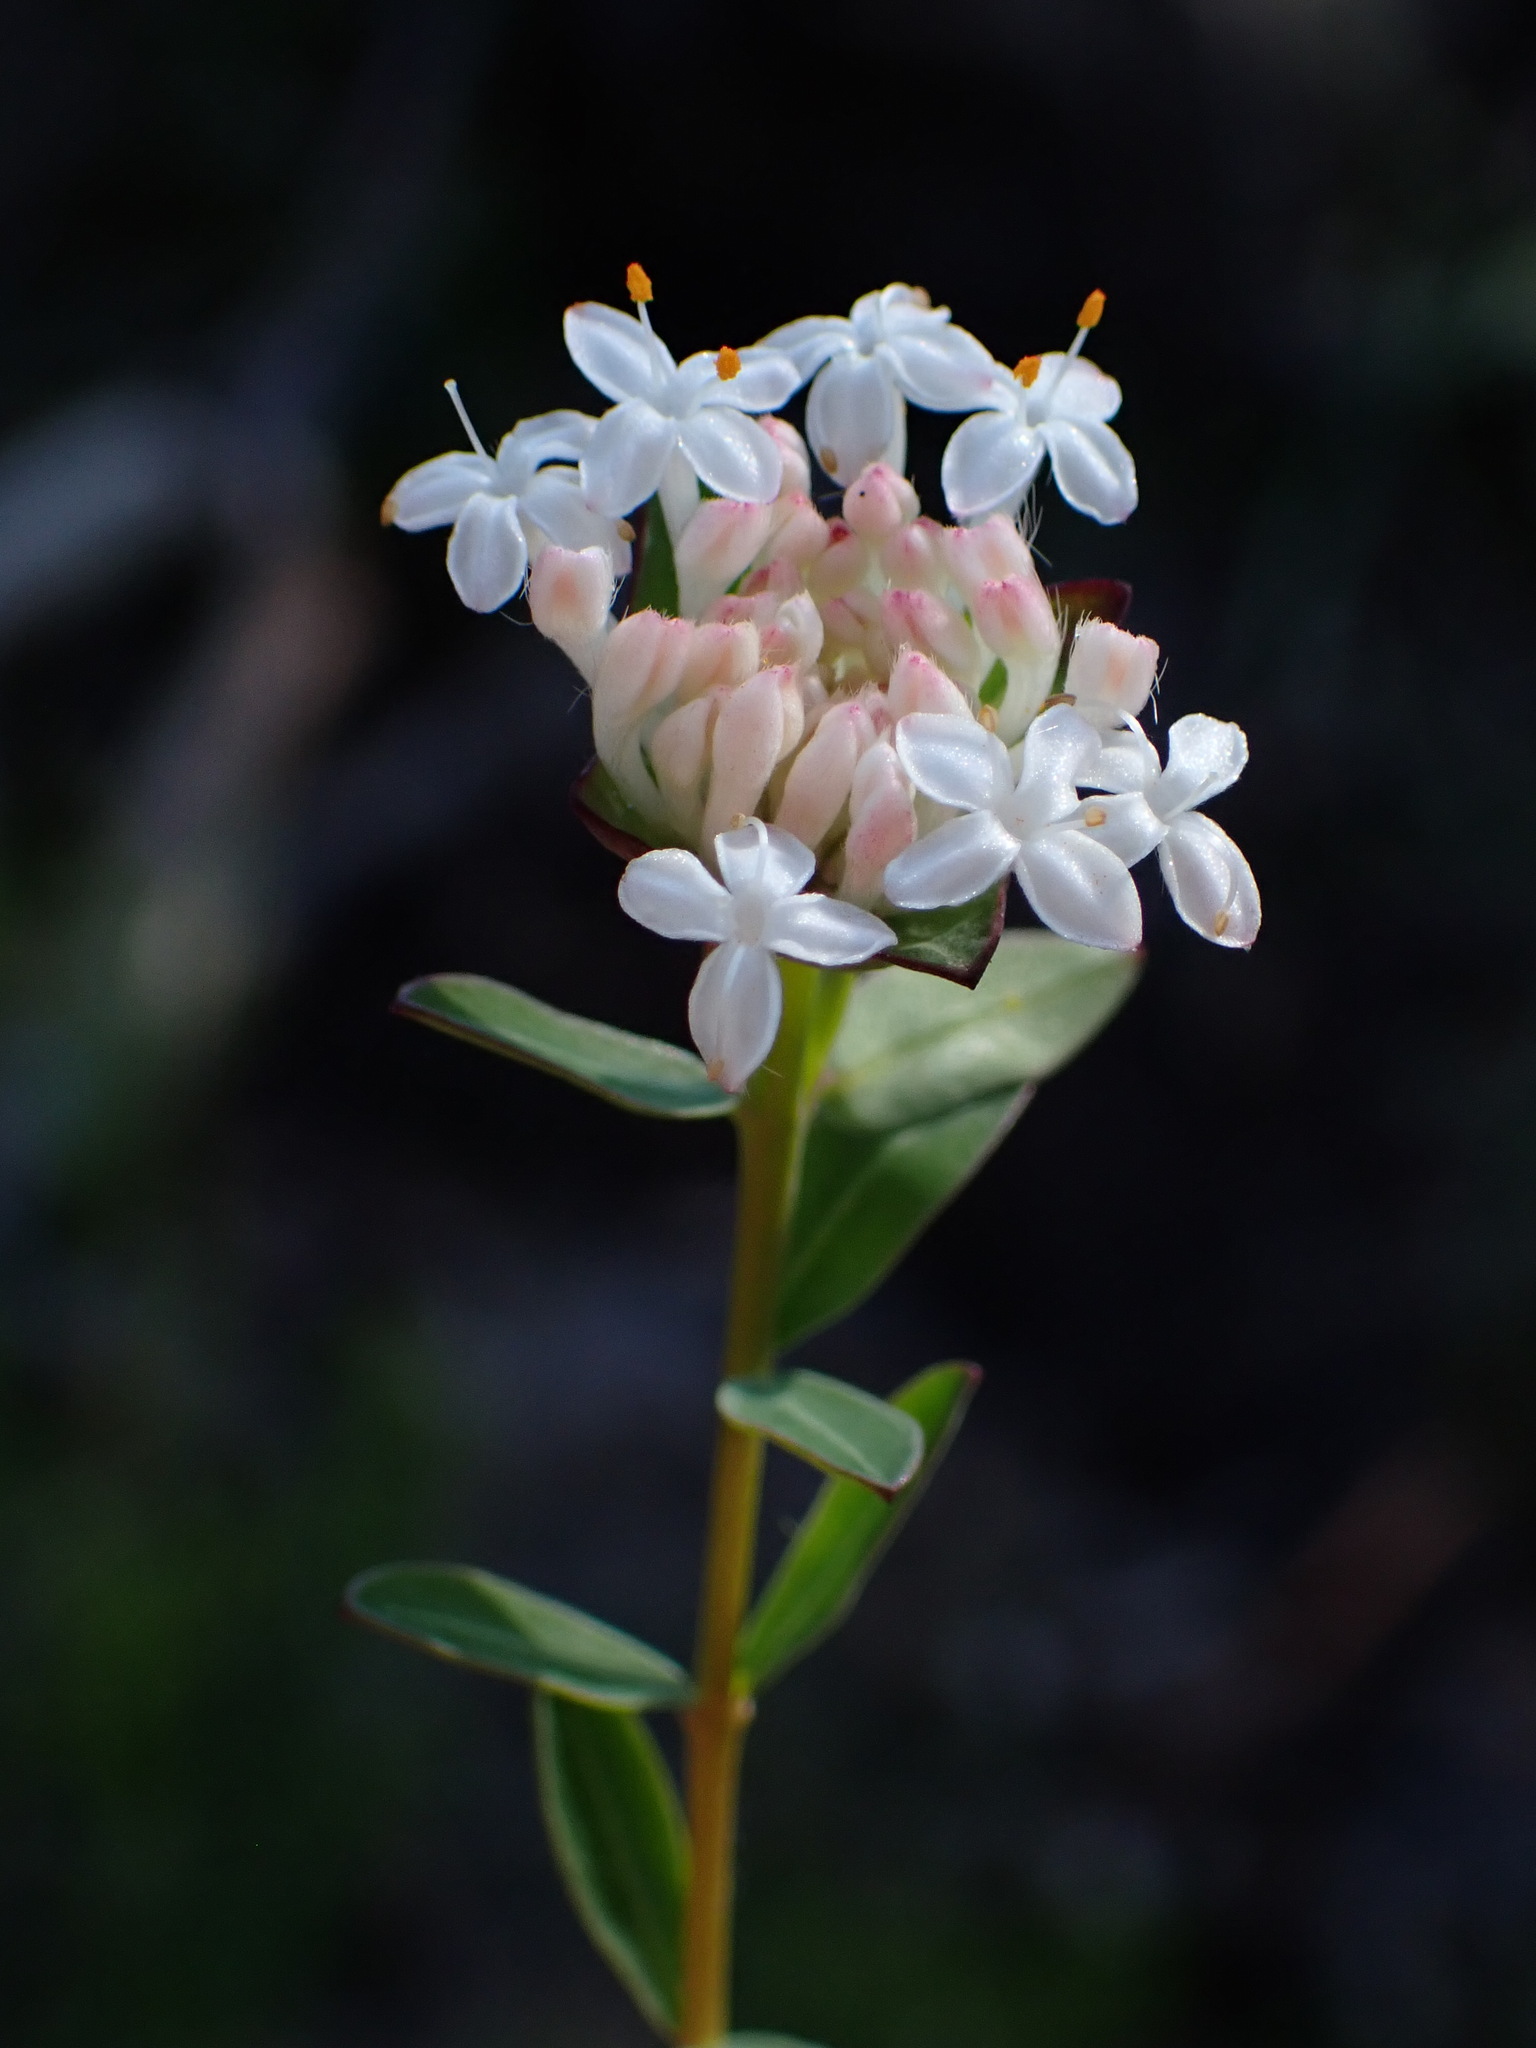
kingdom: Plantae
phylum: Tracheophyta
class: Magnoliopsida
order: Malvales
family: Thymelaeaceae
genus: Pimelea
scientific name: Pimelea linifolia
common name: Queen-of-the-bush
